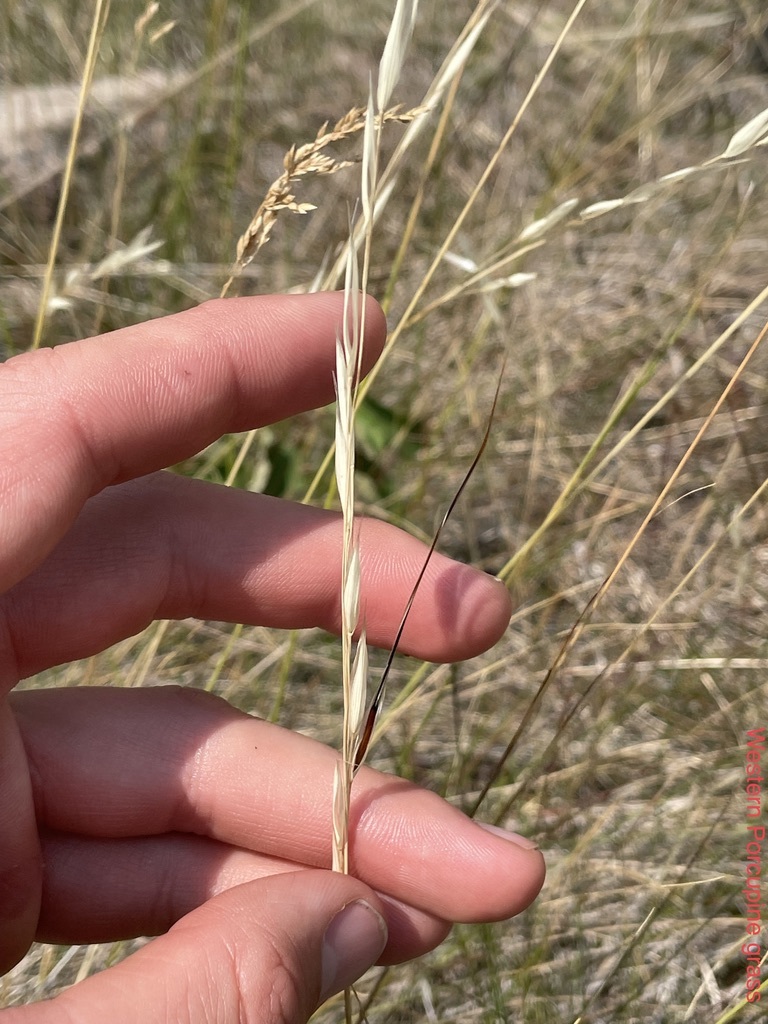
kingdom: Plantae
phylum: Tracheophyta
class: Liliopsida
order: Poales
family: Poaceae
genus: Hesperostipa
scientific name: Hesperostipa curtiseta
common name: Canada needle-and-thread grass
